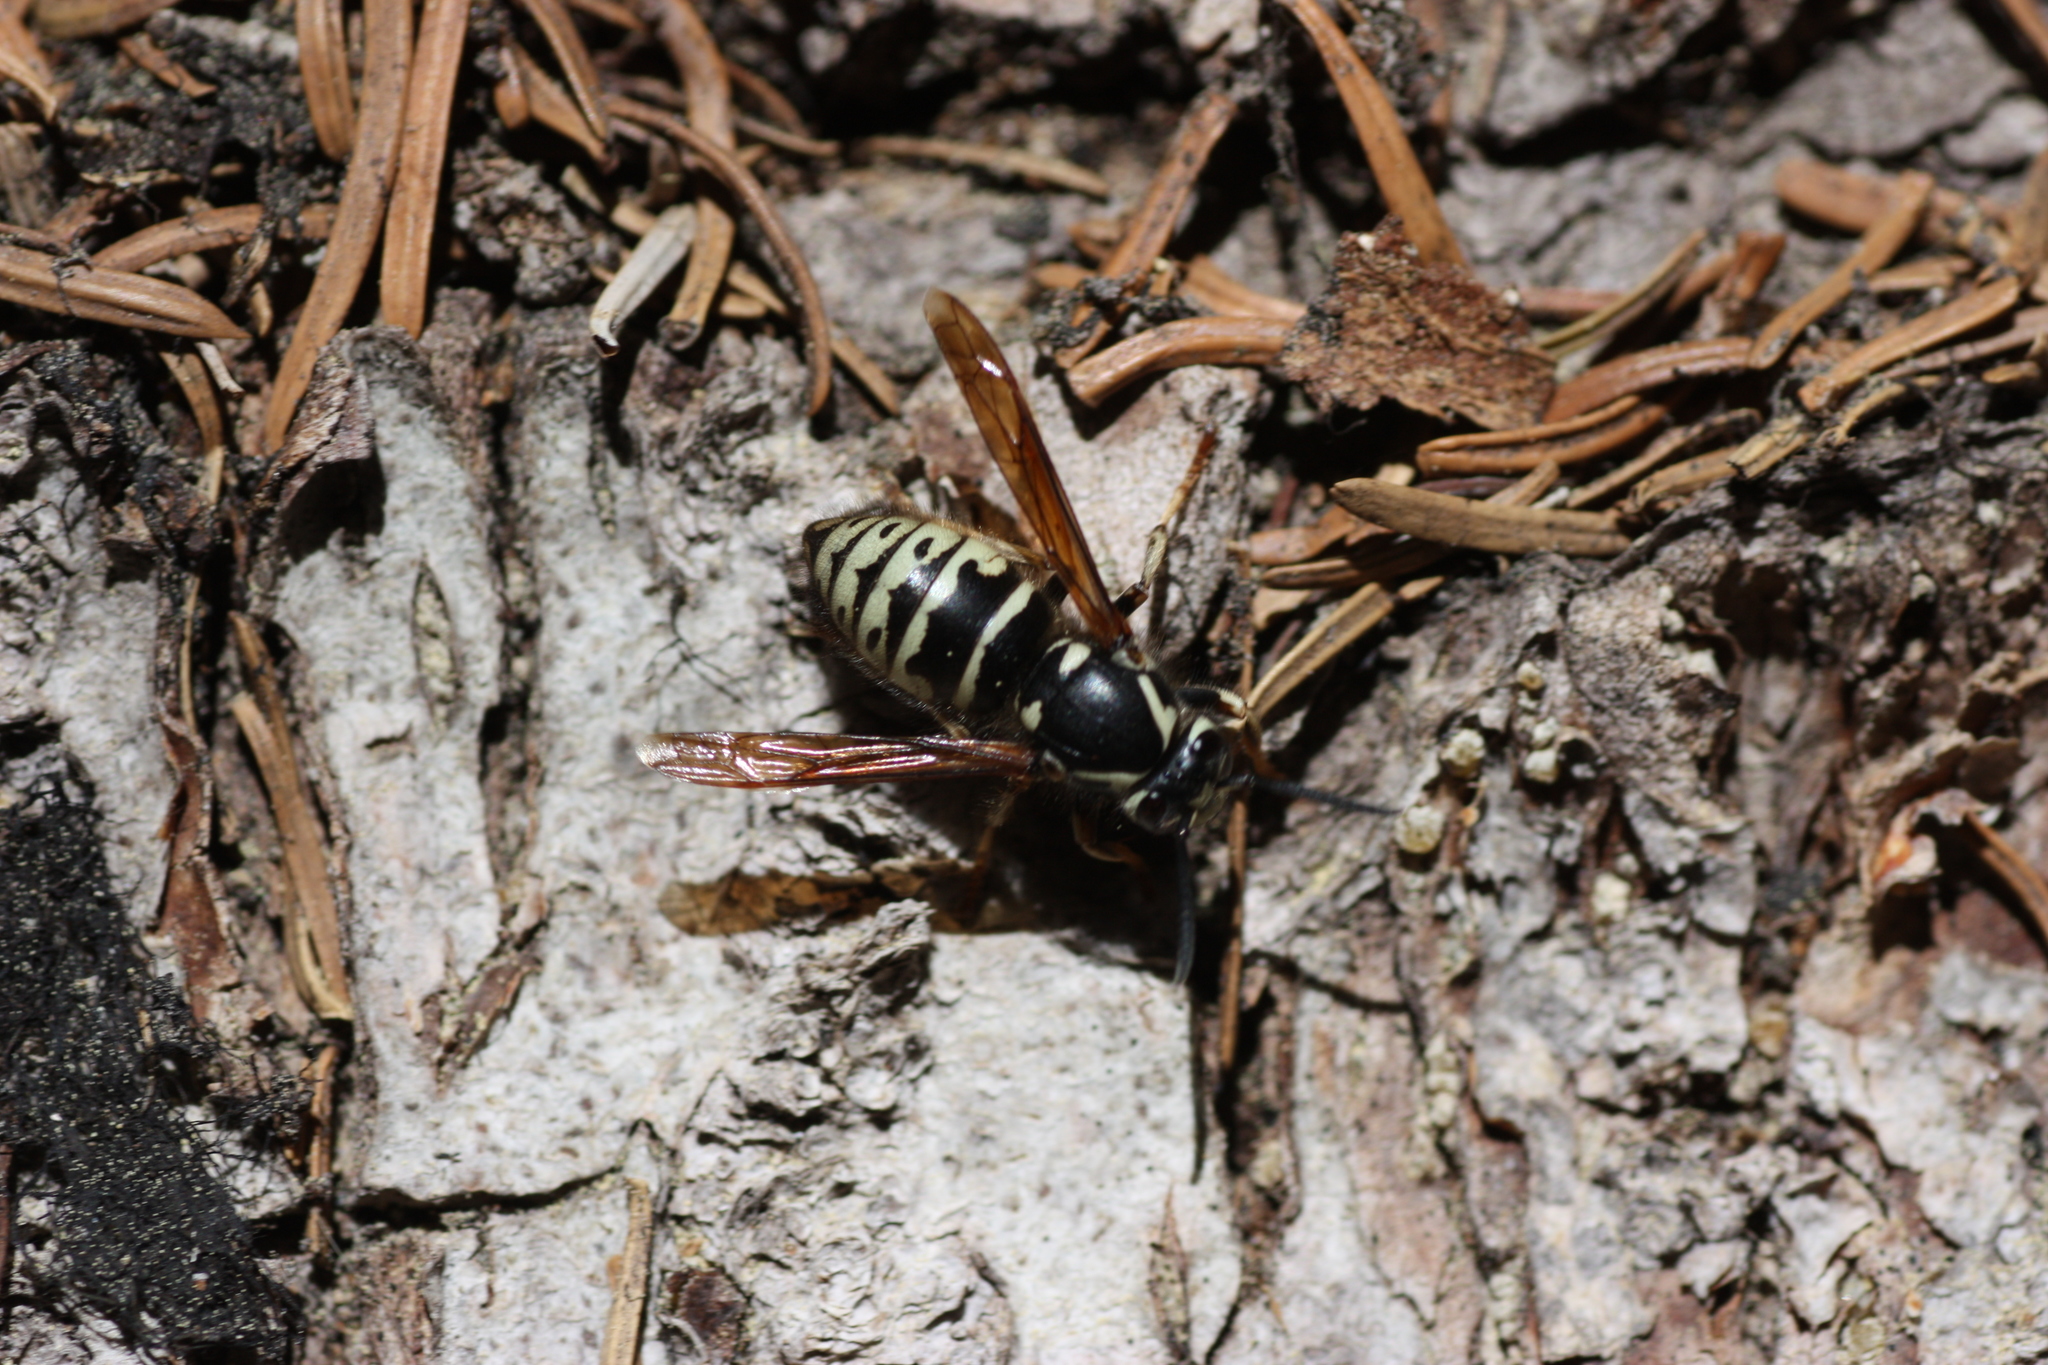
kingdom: Animalia
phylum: Arthropoda
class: Insecta
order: Hymenoptera
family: Vespidae
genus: Dolichovespula
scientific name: Dolichovespula adulterina
